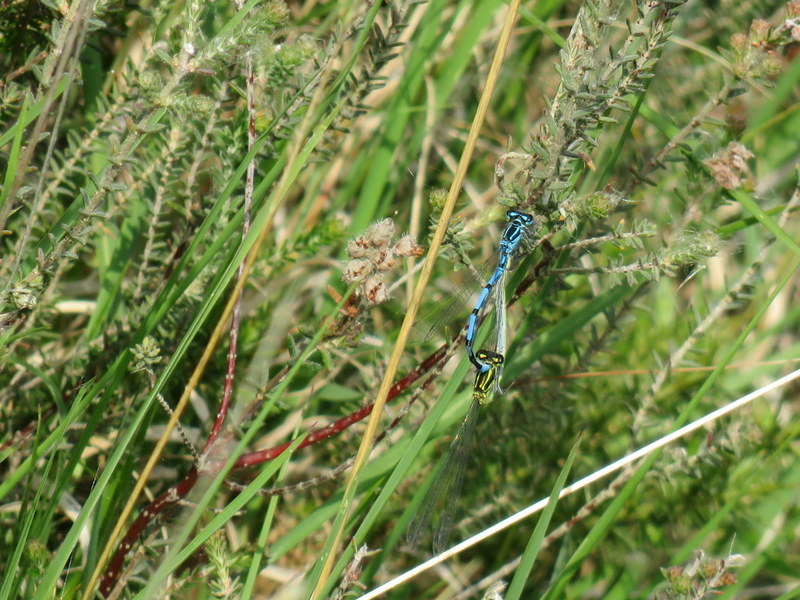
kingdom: Animalia
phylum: Arthropoda
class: Insecta
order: Odonata
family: Coenagrionidae
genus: Coenagrion
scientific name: Coenagrion puella
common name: Azure damselfly
